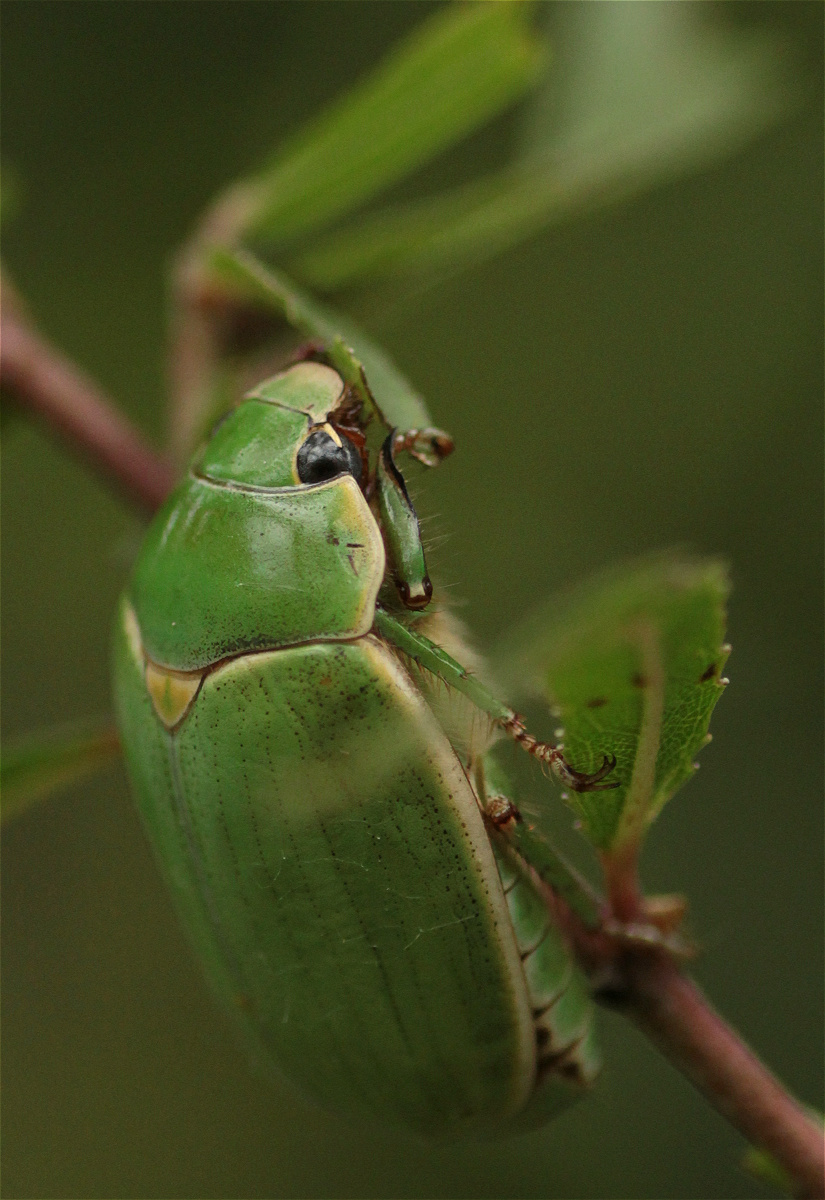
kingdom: Animalia
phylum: Arthropoda
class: Insecta
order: Coleoptera
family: Scarabaeidae
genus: Platycoelia
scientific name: Platycoelia gaujoni
